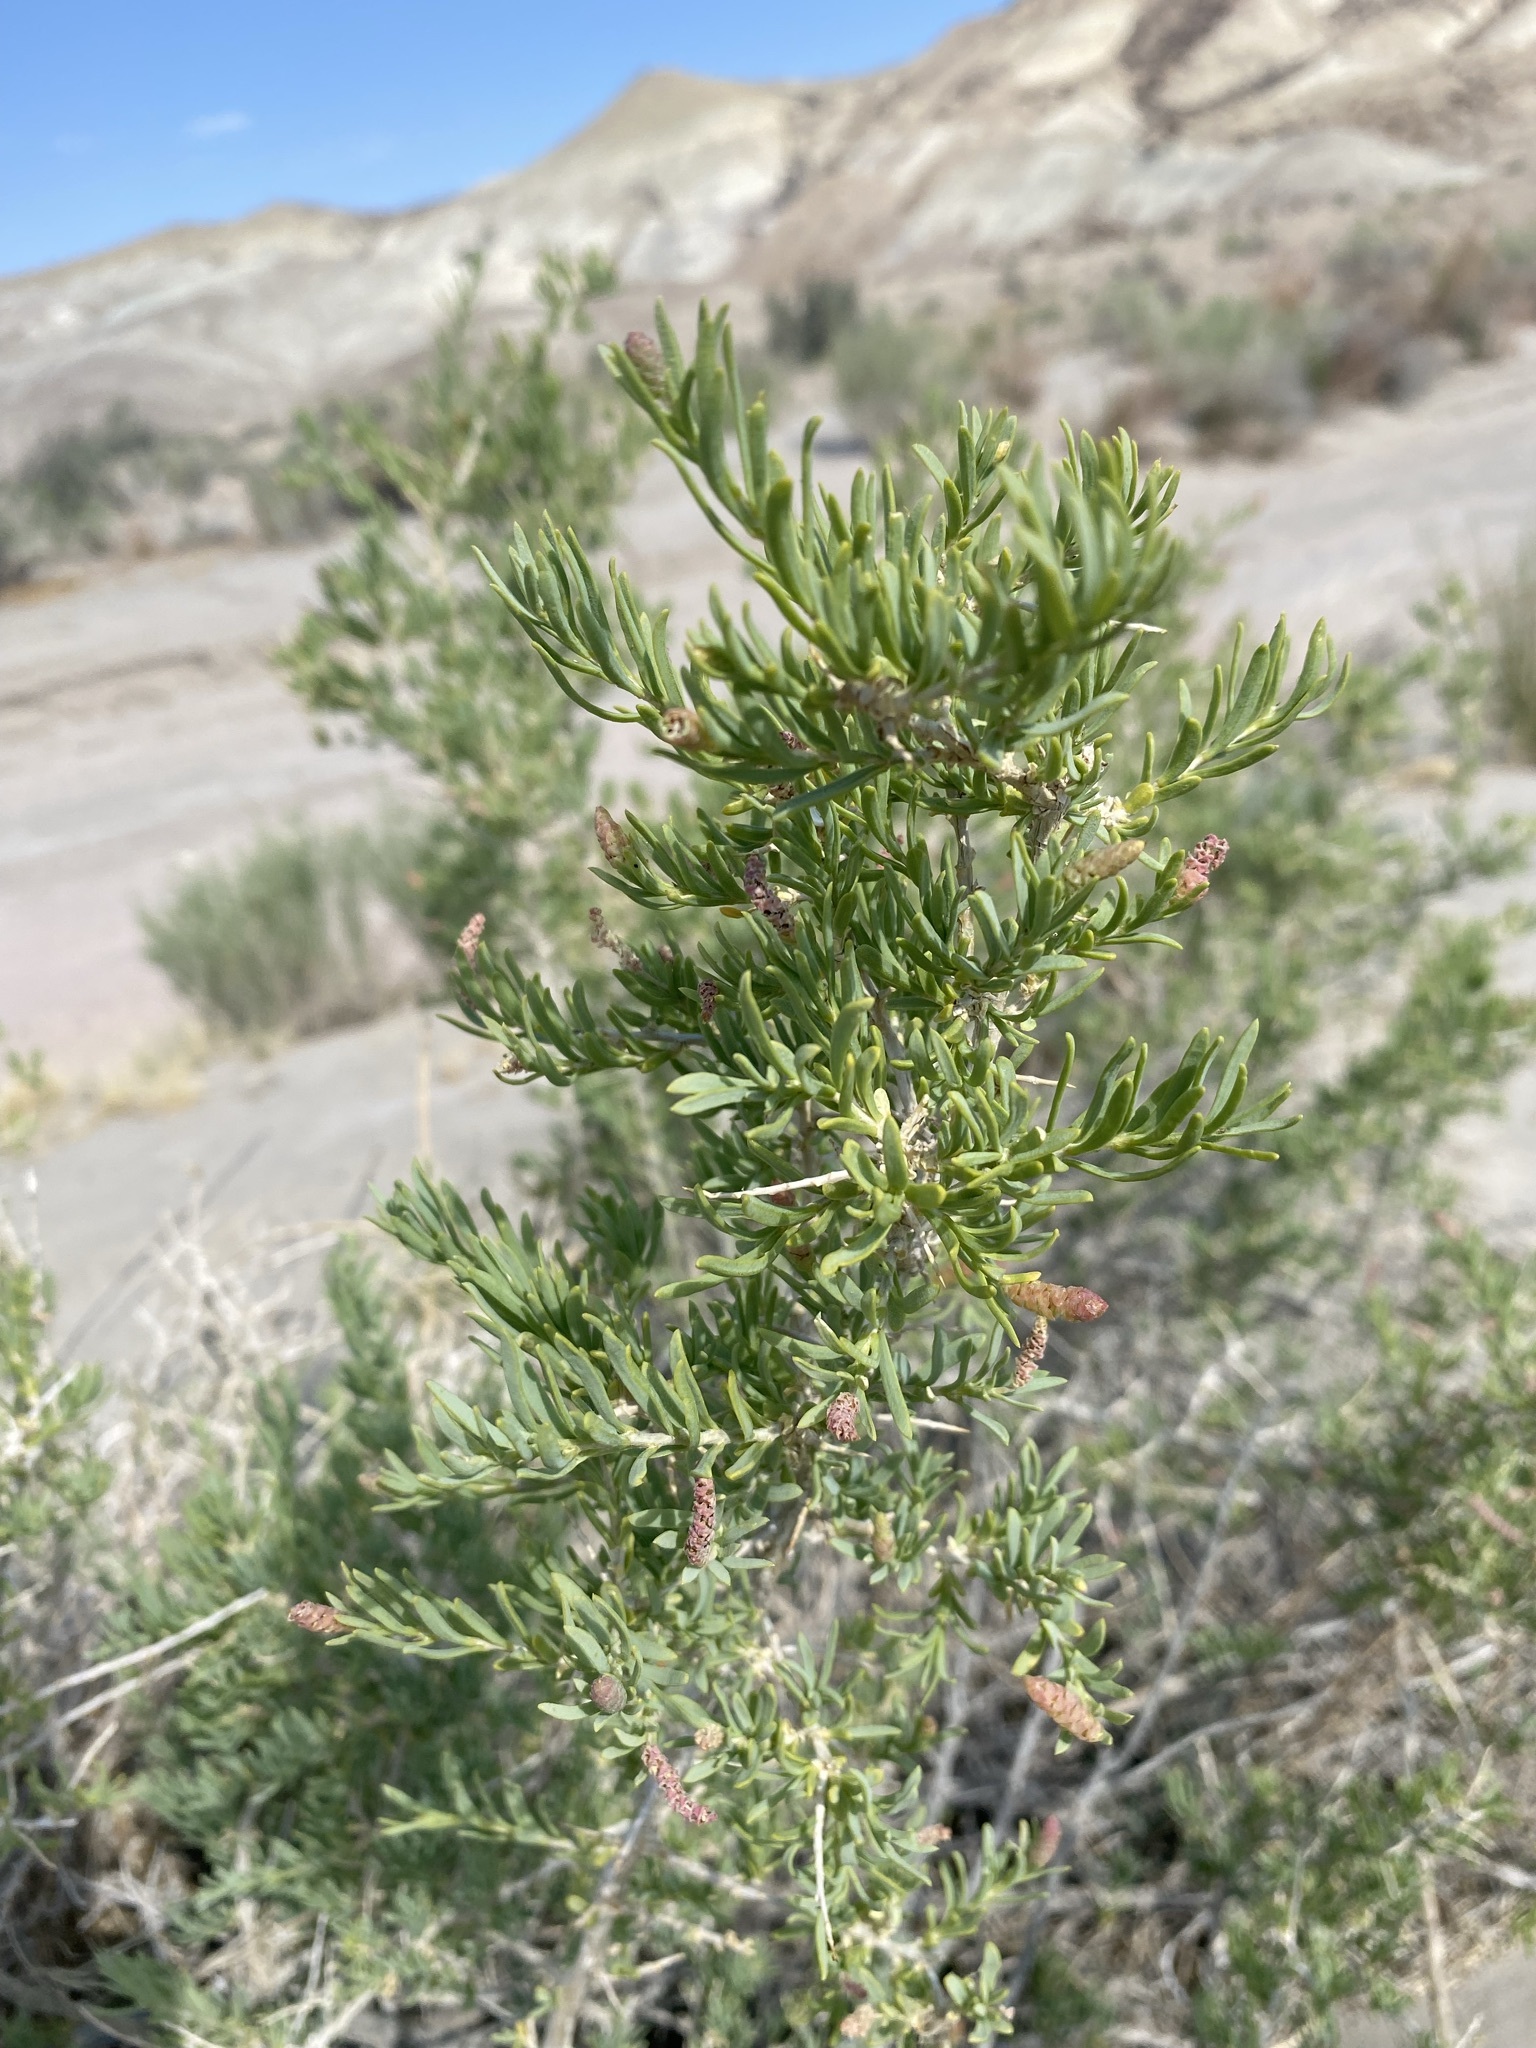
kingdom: Plantae
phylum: Tracheophyta
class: Magnoliopsida
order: Caryophyllales
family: Sarcobataceae
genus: Sarcobatus
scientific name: Sarcobatus vermiculatus
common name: Greasewood
